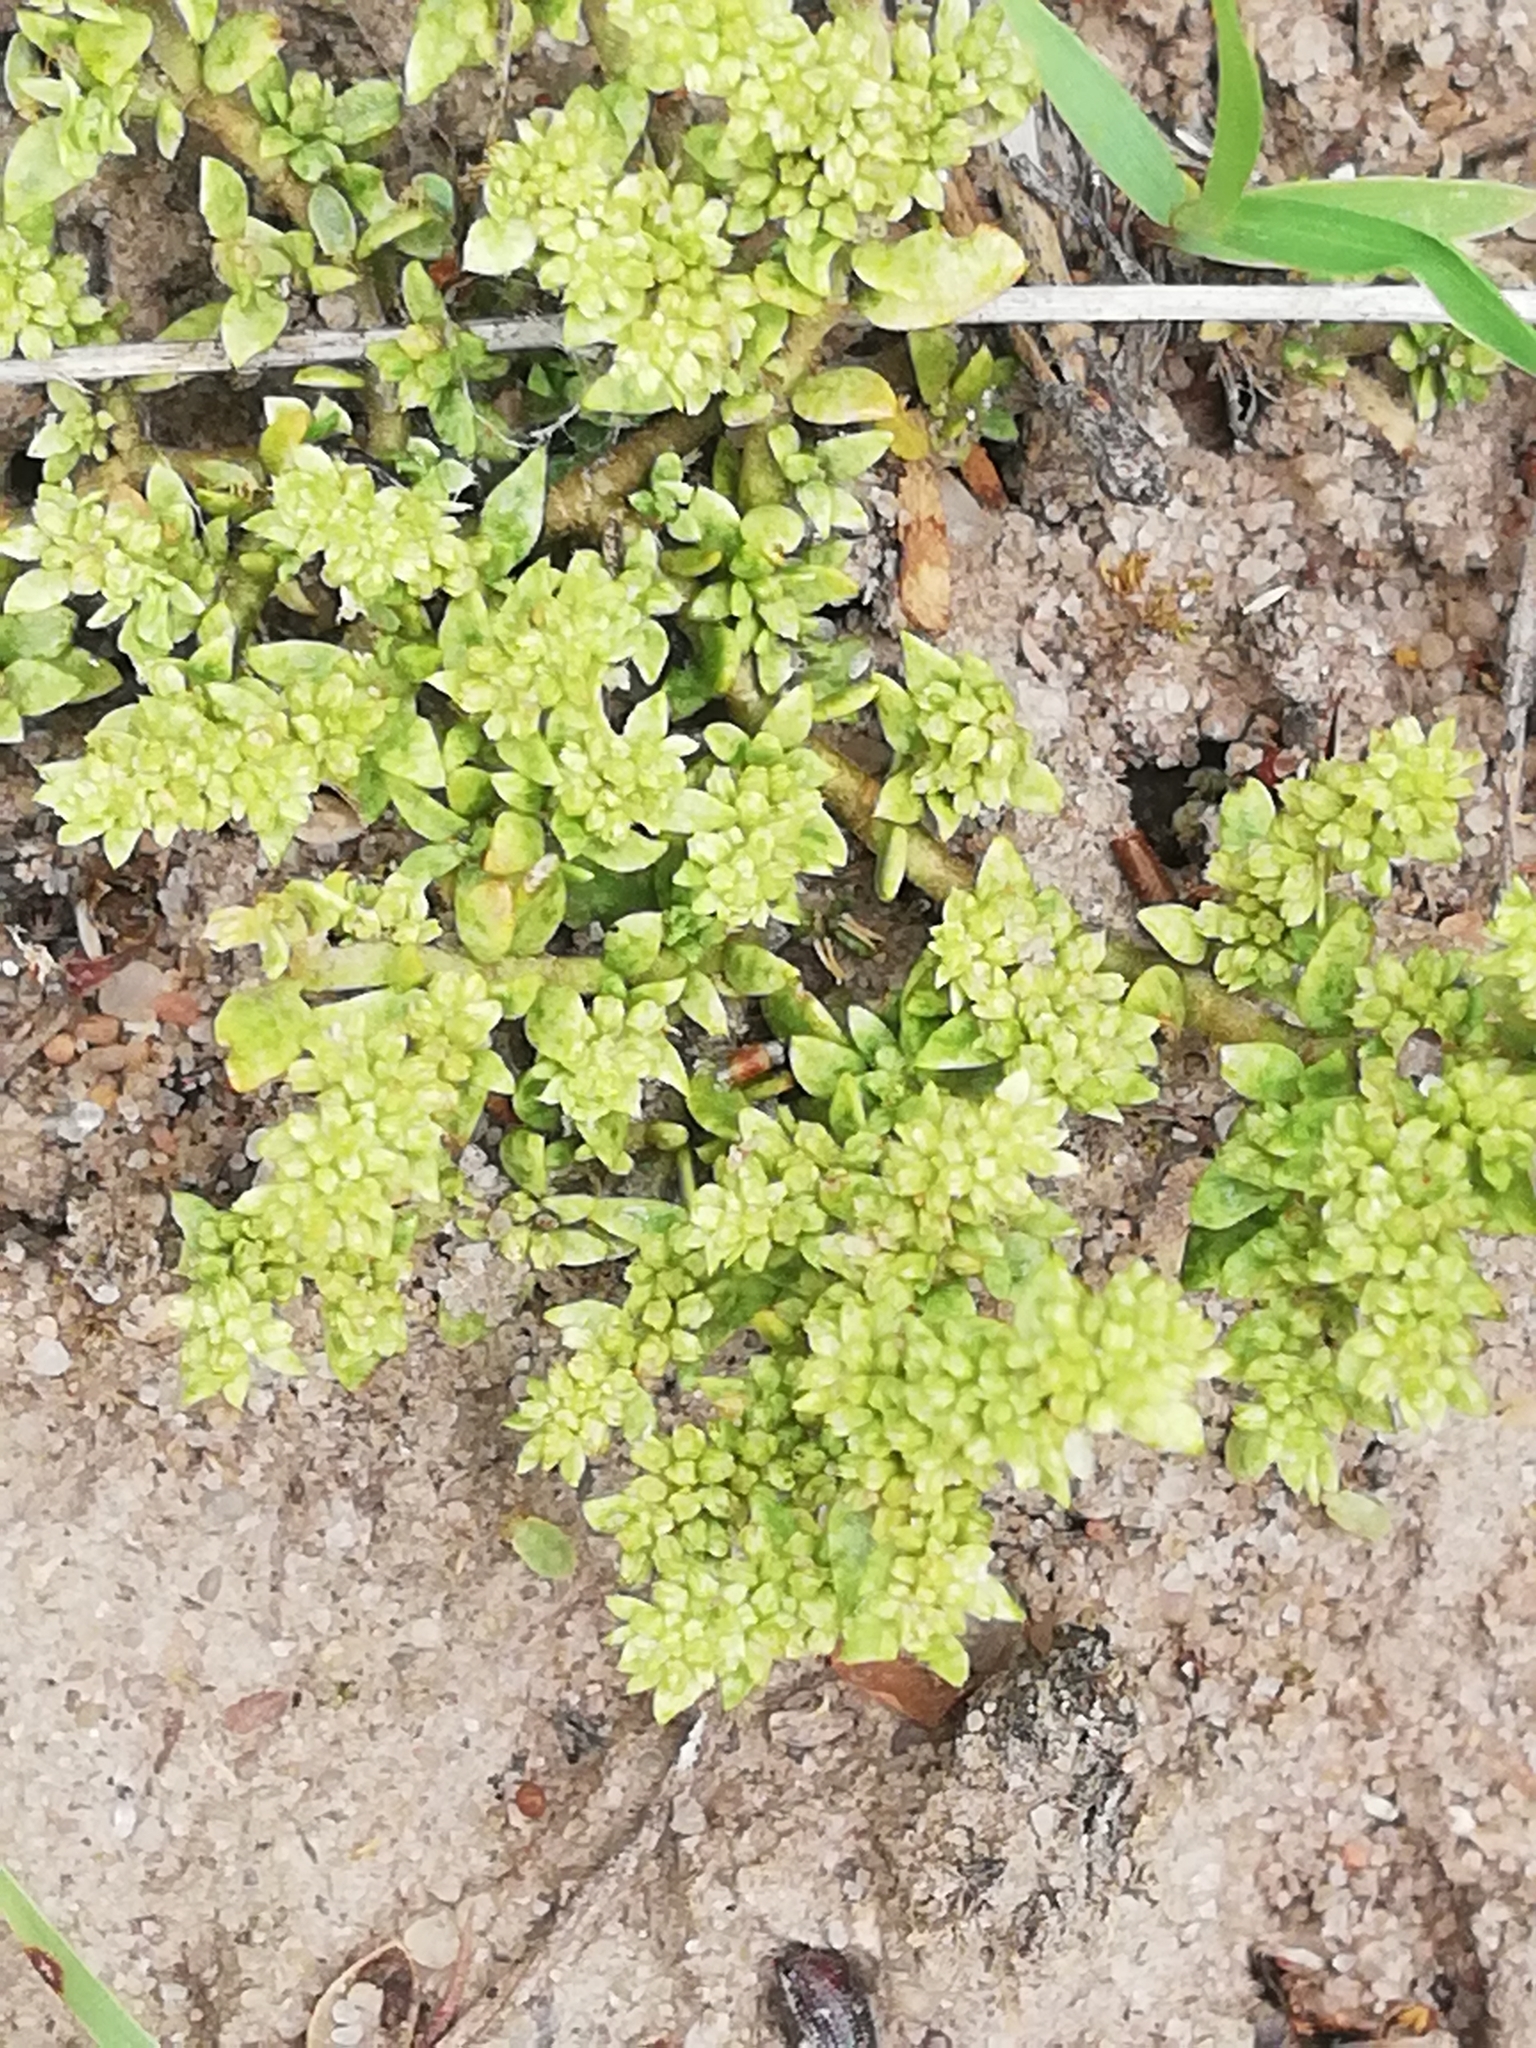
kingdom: Plantae
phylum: Tracheophyta
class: Magnoliopsida
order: Caryophyllales
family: Caryophyllaceae
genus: Herniaria
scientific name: Herniaria glabra
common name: Smooth rupturewort
